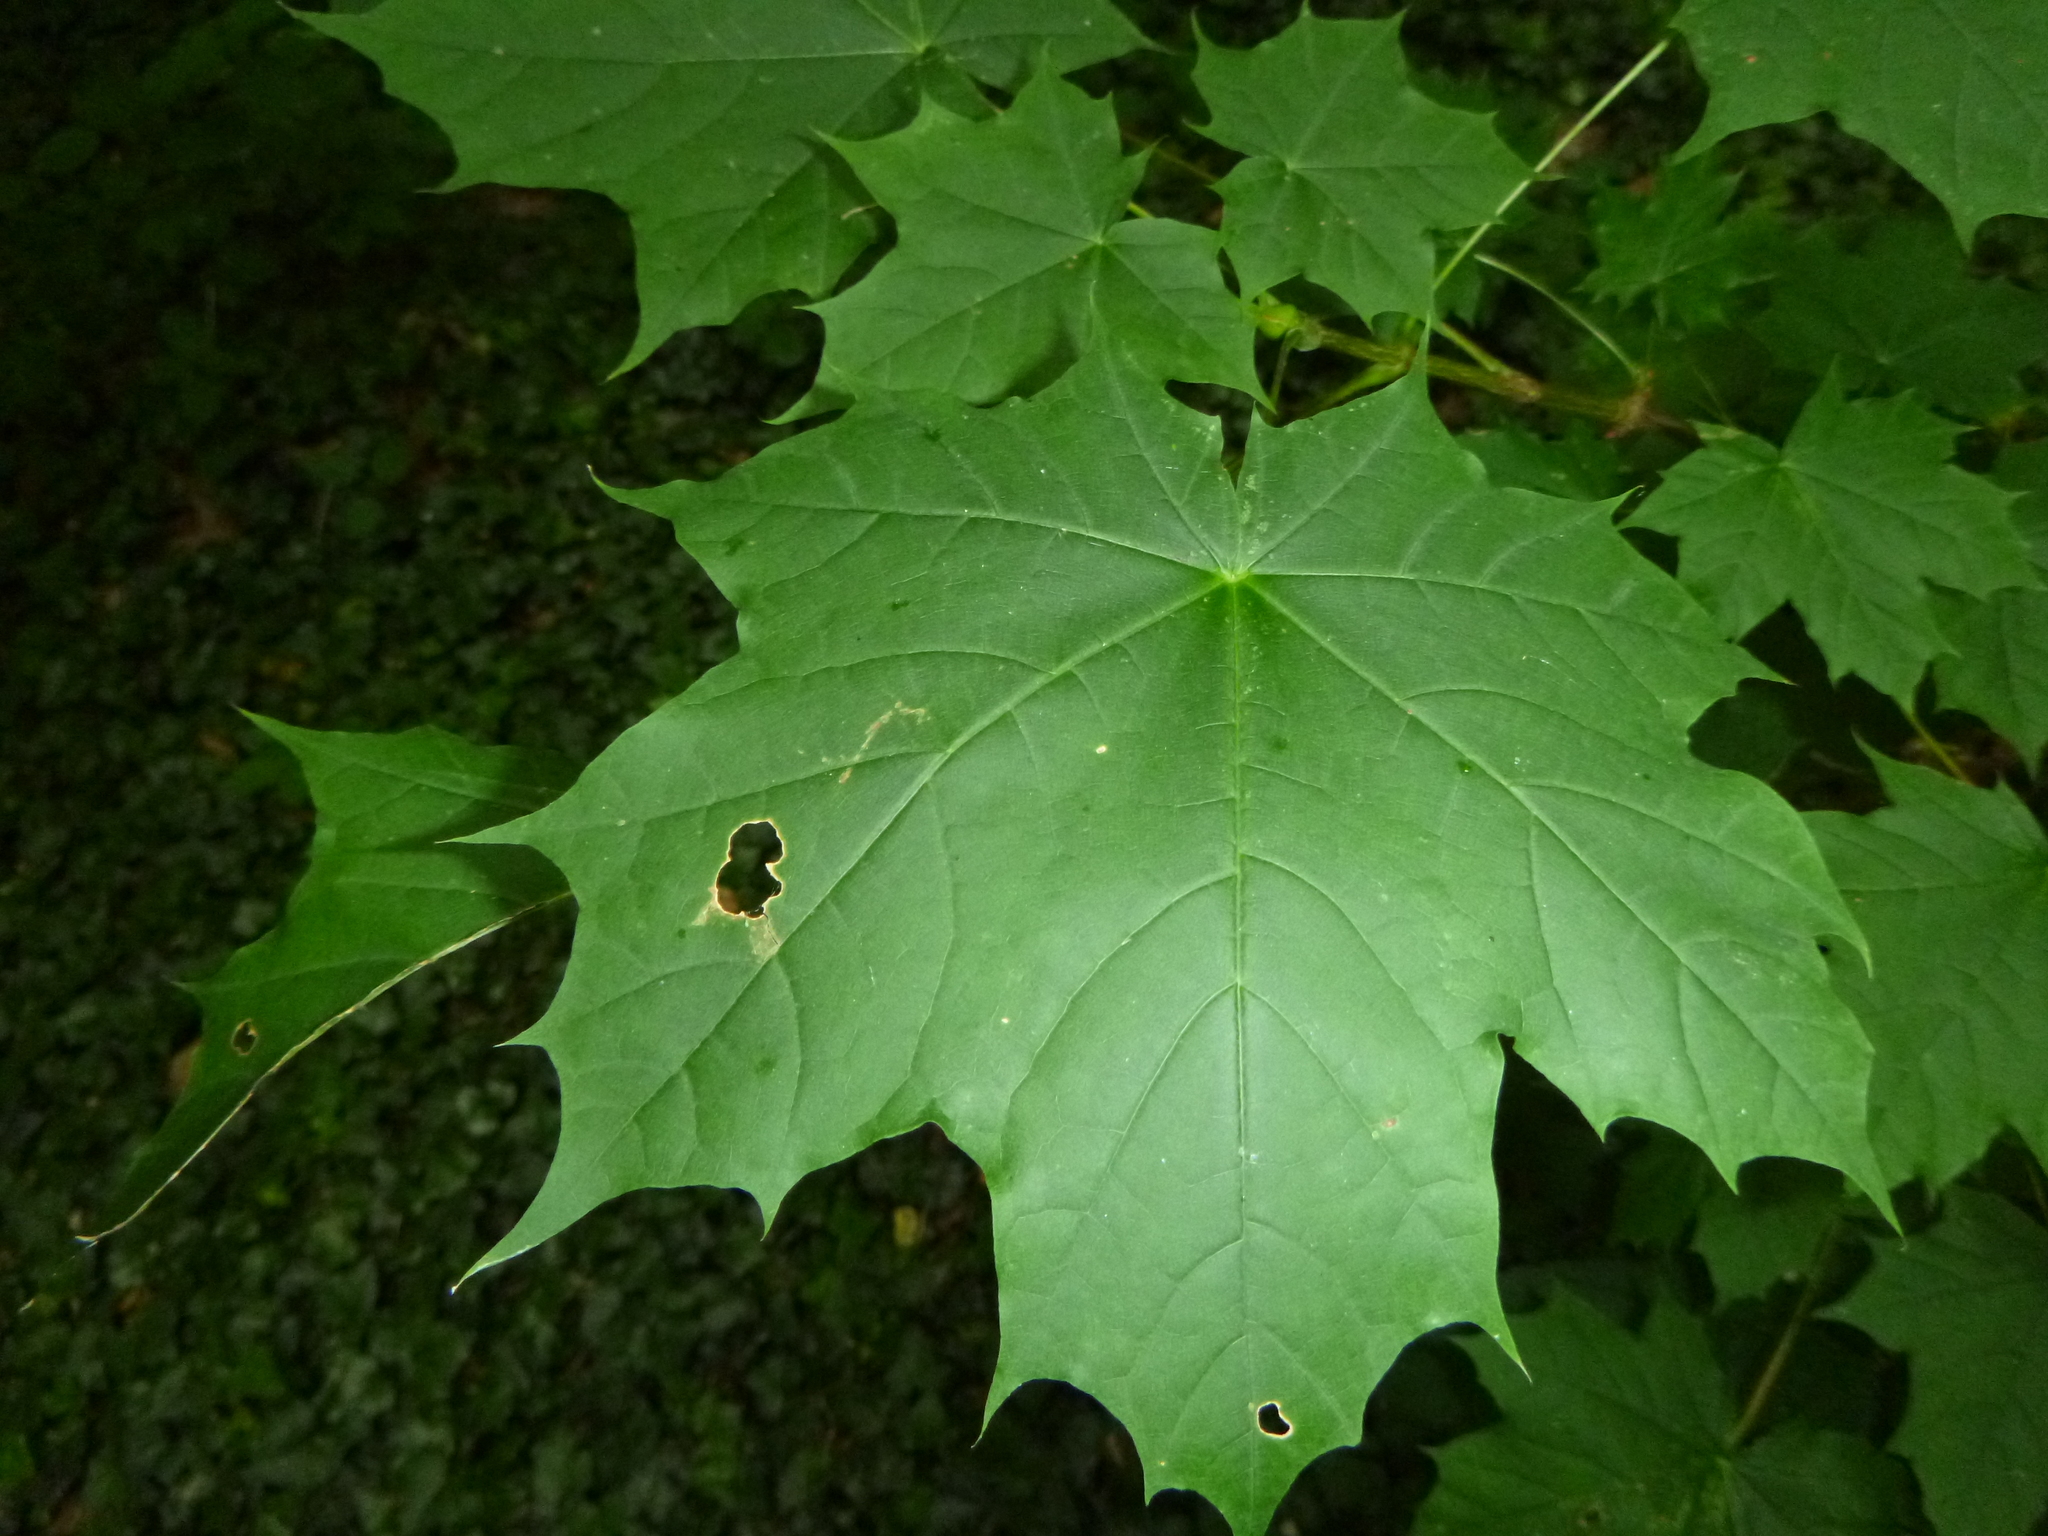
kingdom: Plantae
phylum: Tracheophyta
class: Magnoliopsida
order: Sapindales
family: Sapindaceae
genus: Acer
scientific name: Acer platanoides
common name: Norway maple
